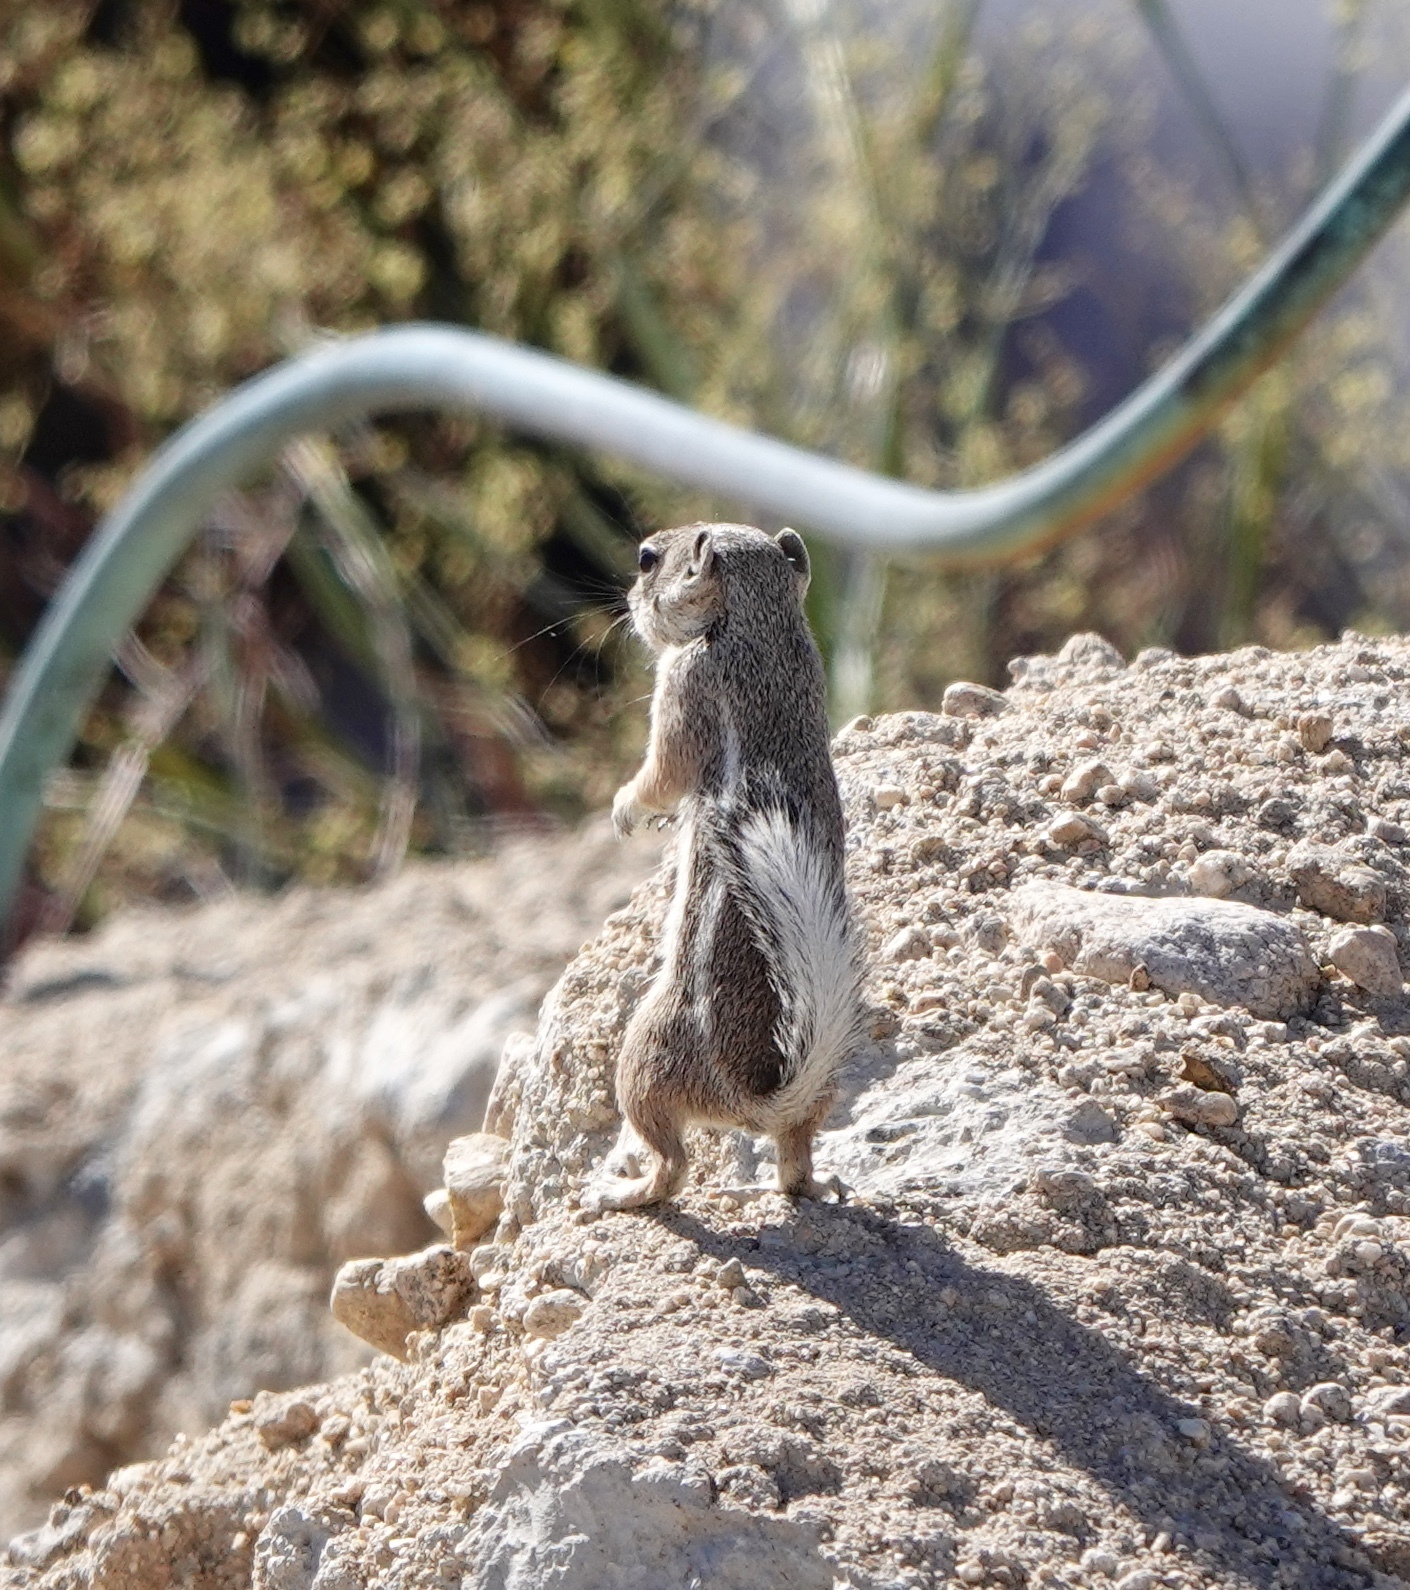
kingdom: Animalia
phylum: Chordata
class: Mammalia
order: Rodentia
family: Sciuridae
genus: Ammospermophilus
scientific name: Ammospermophilus leucurus
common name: White-tailed antelope squirrel
